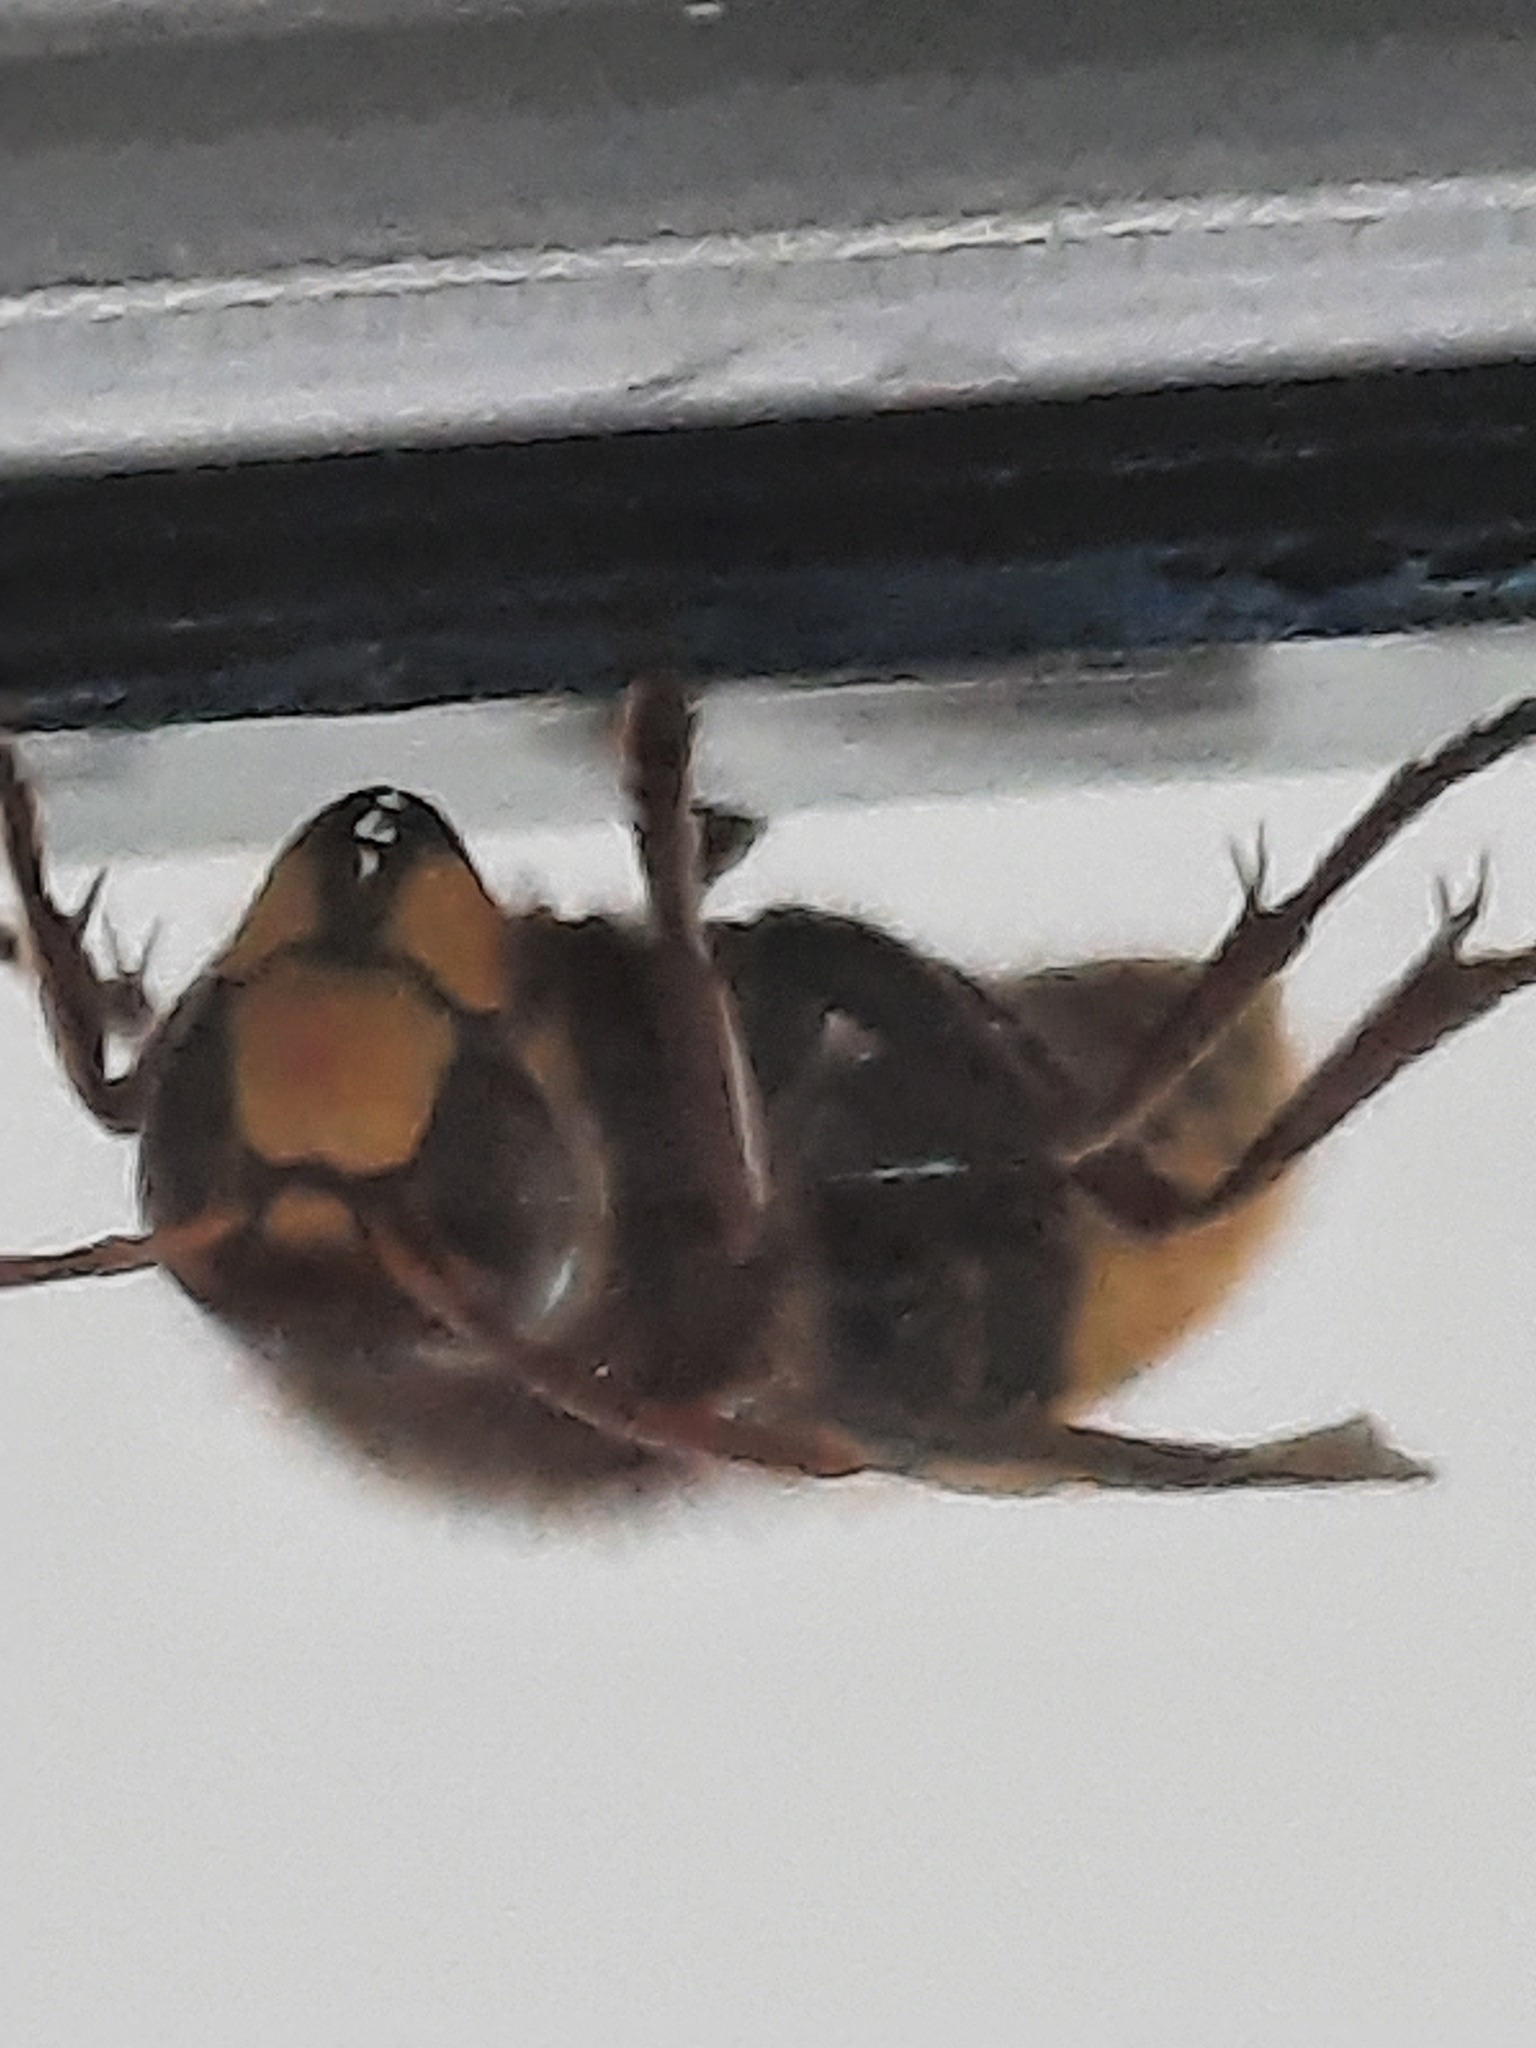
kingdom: Animalia
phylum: Arthropoda
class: Insecta
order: Hymenoptera
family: Vespidae
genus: Vespa
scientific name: Vespa crabro
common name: Hornet
